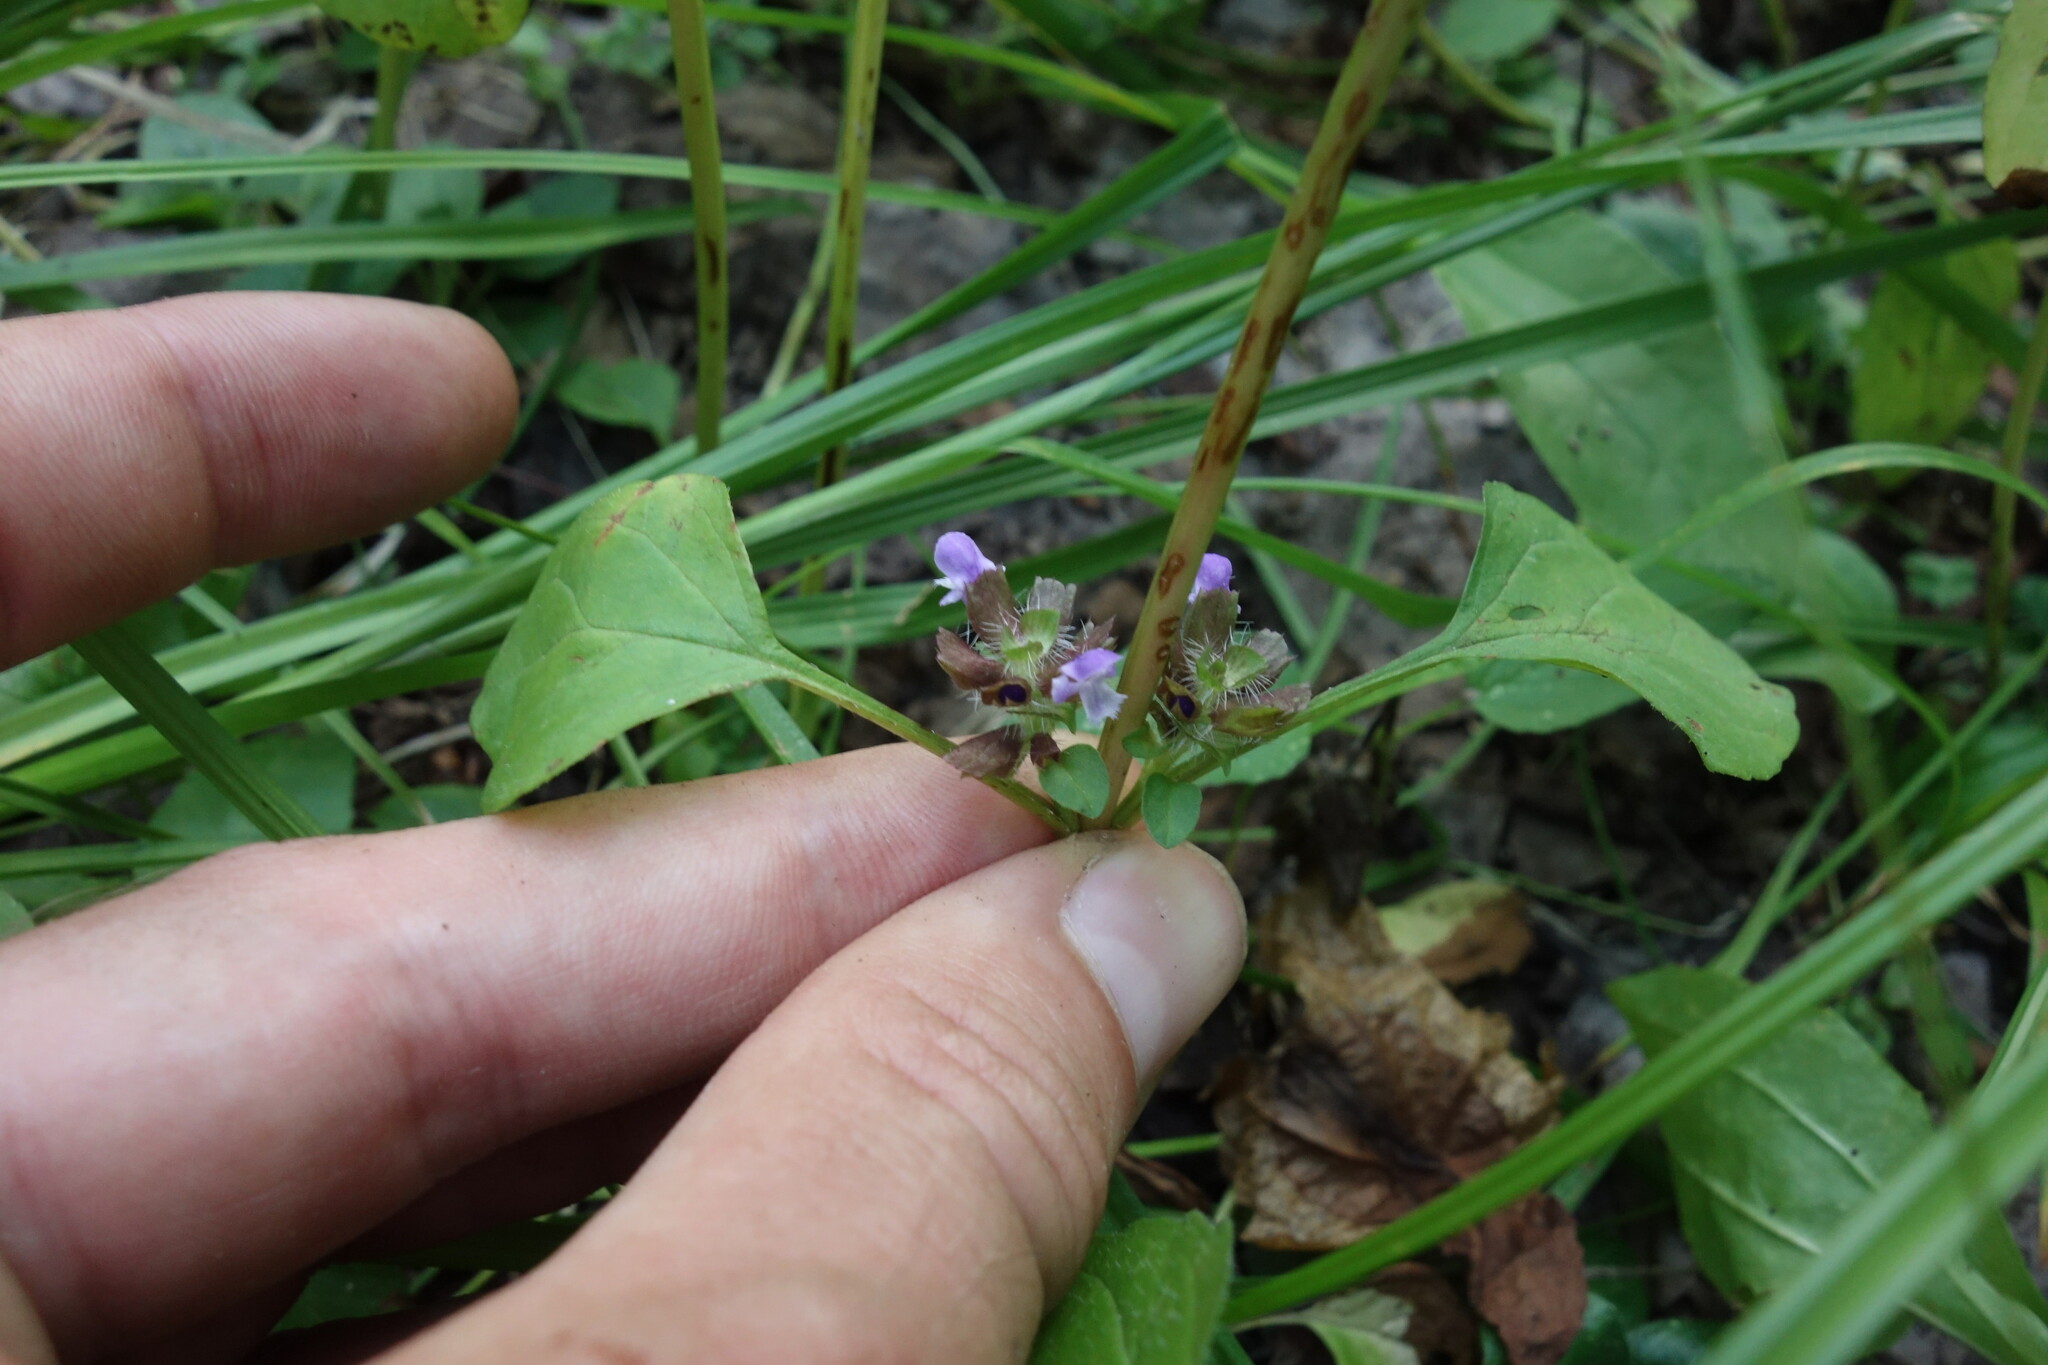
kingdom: Plantae
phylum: Tracheophyta
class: Magnoliopsida
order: Lamiales
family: Lamiaceae
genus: Prunella
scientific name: Prunella vulgaris
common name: Heal-all
